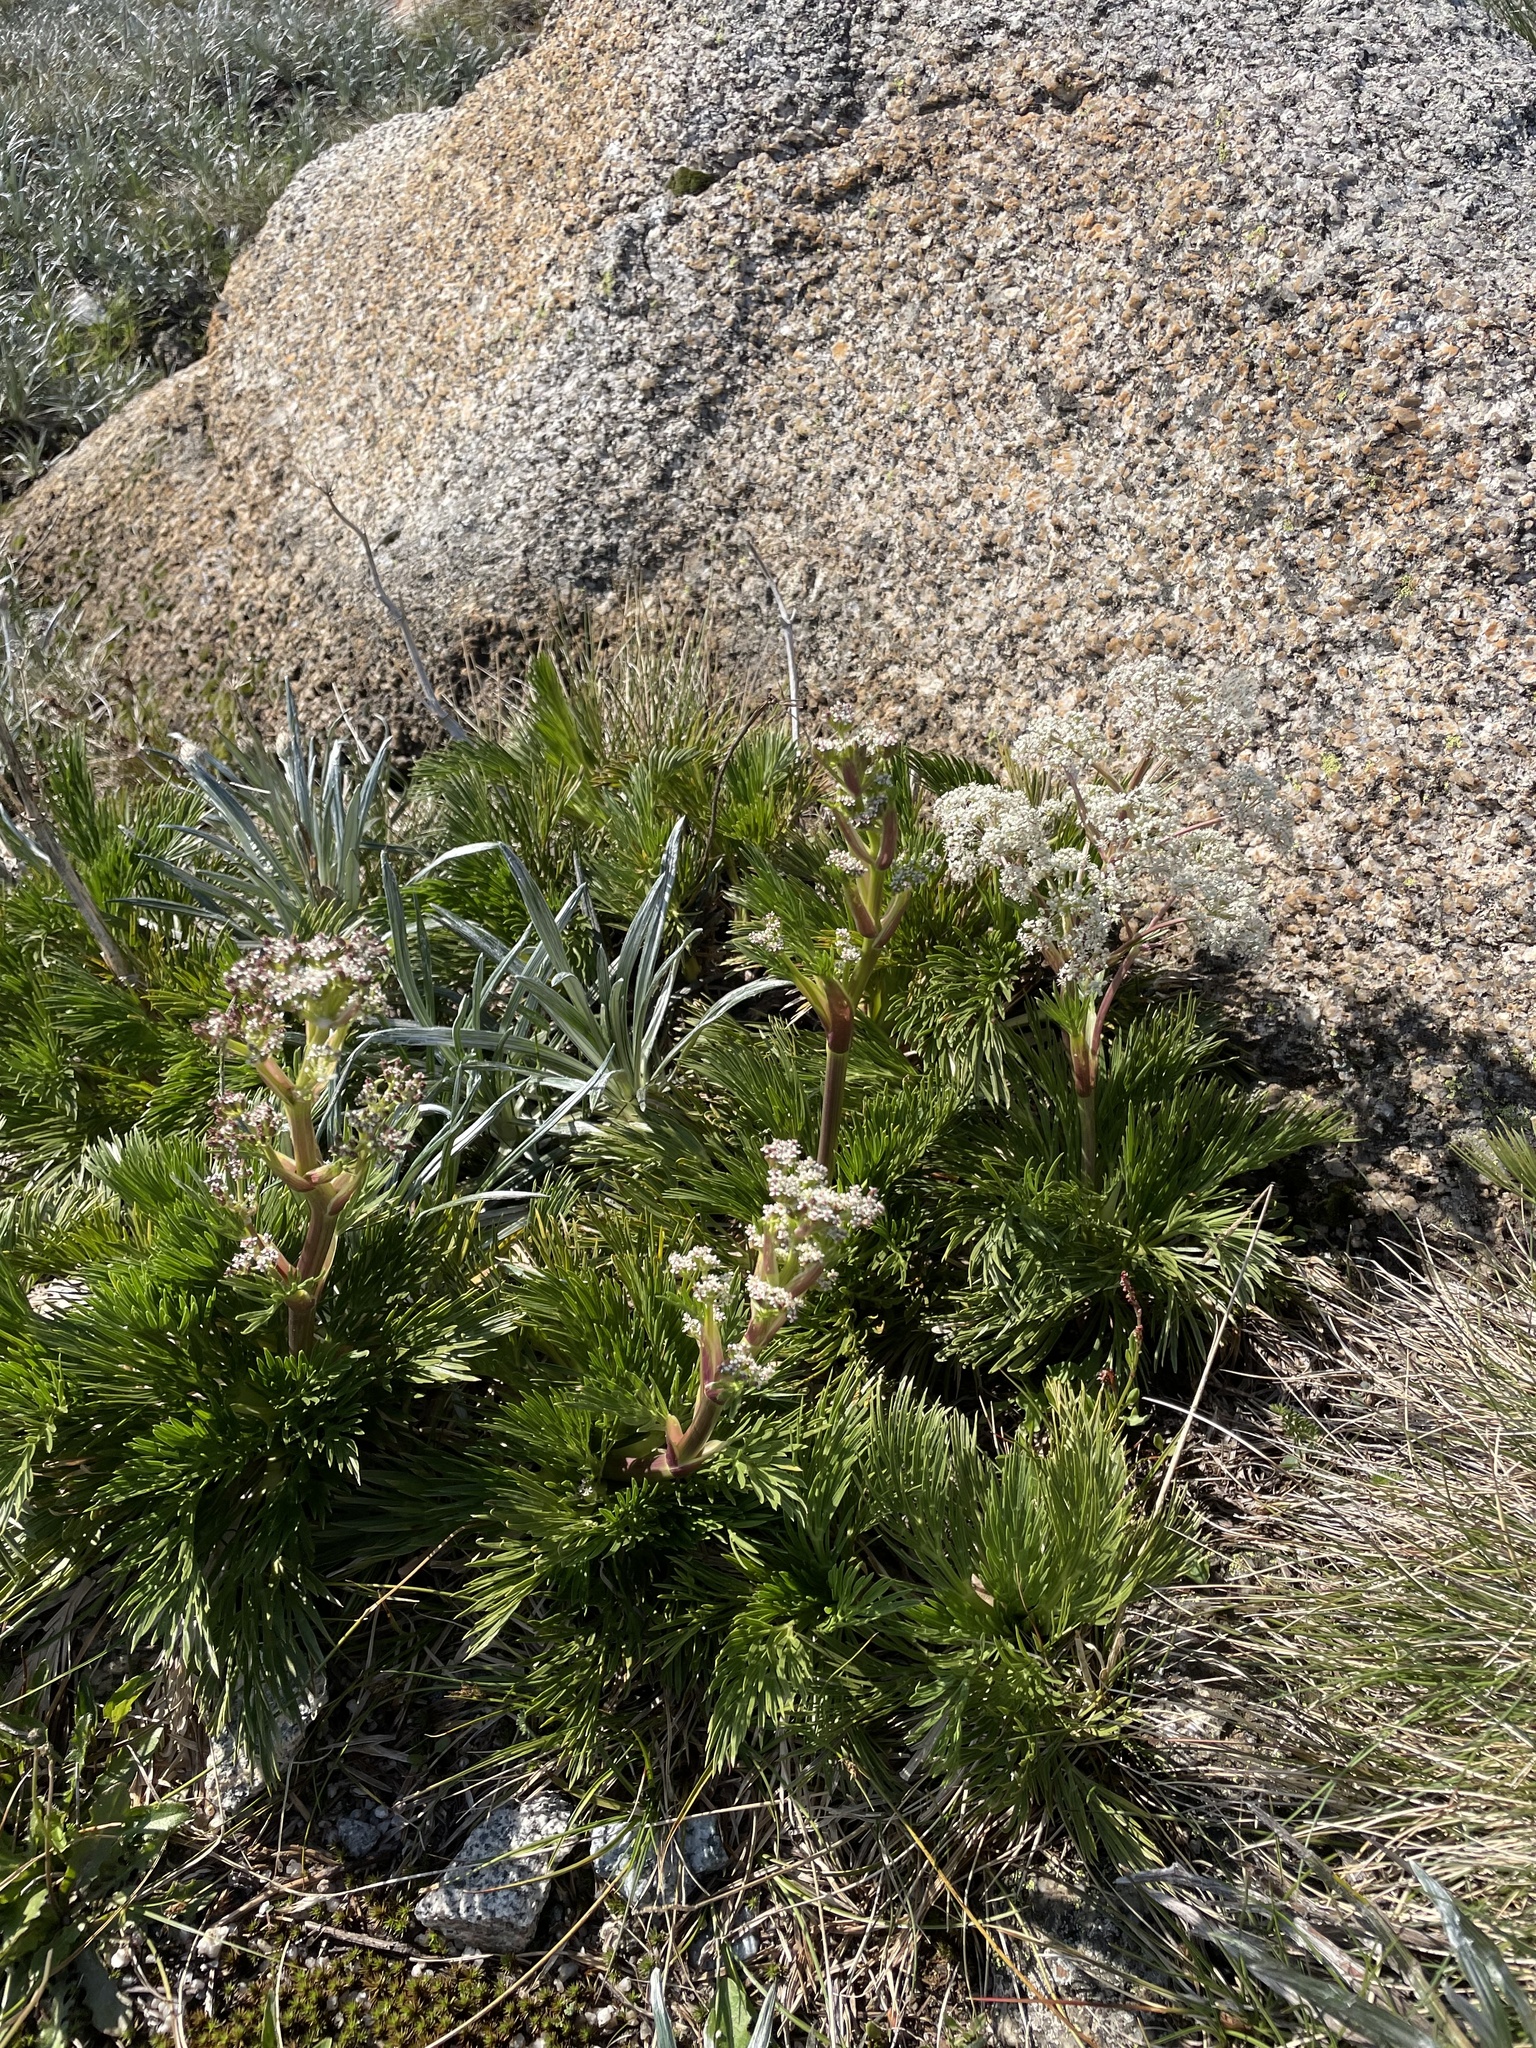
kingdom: Plantae
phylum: Tracheophyta
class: Magnoliopsida
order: Apiales
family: Apiaceae
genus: Aciphylla
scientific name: Aciphylla glacialis
